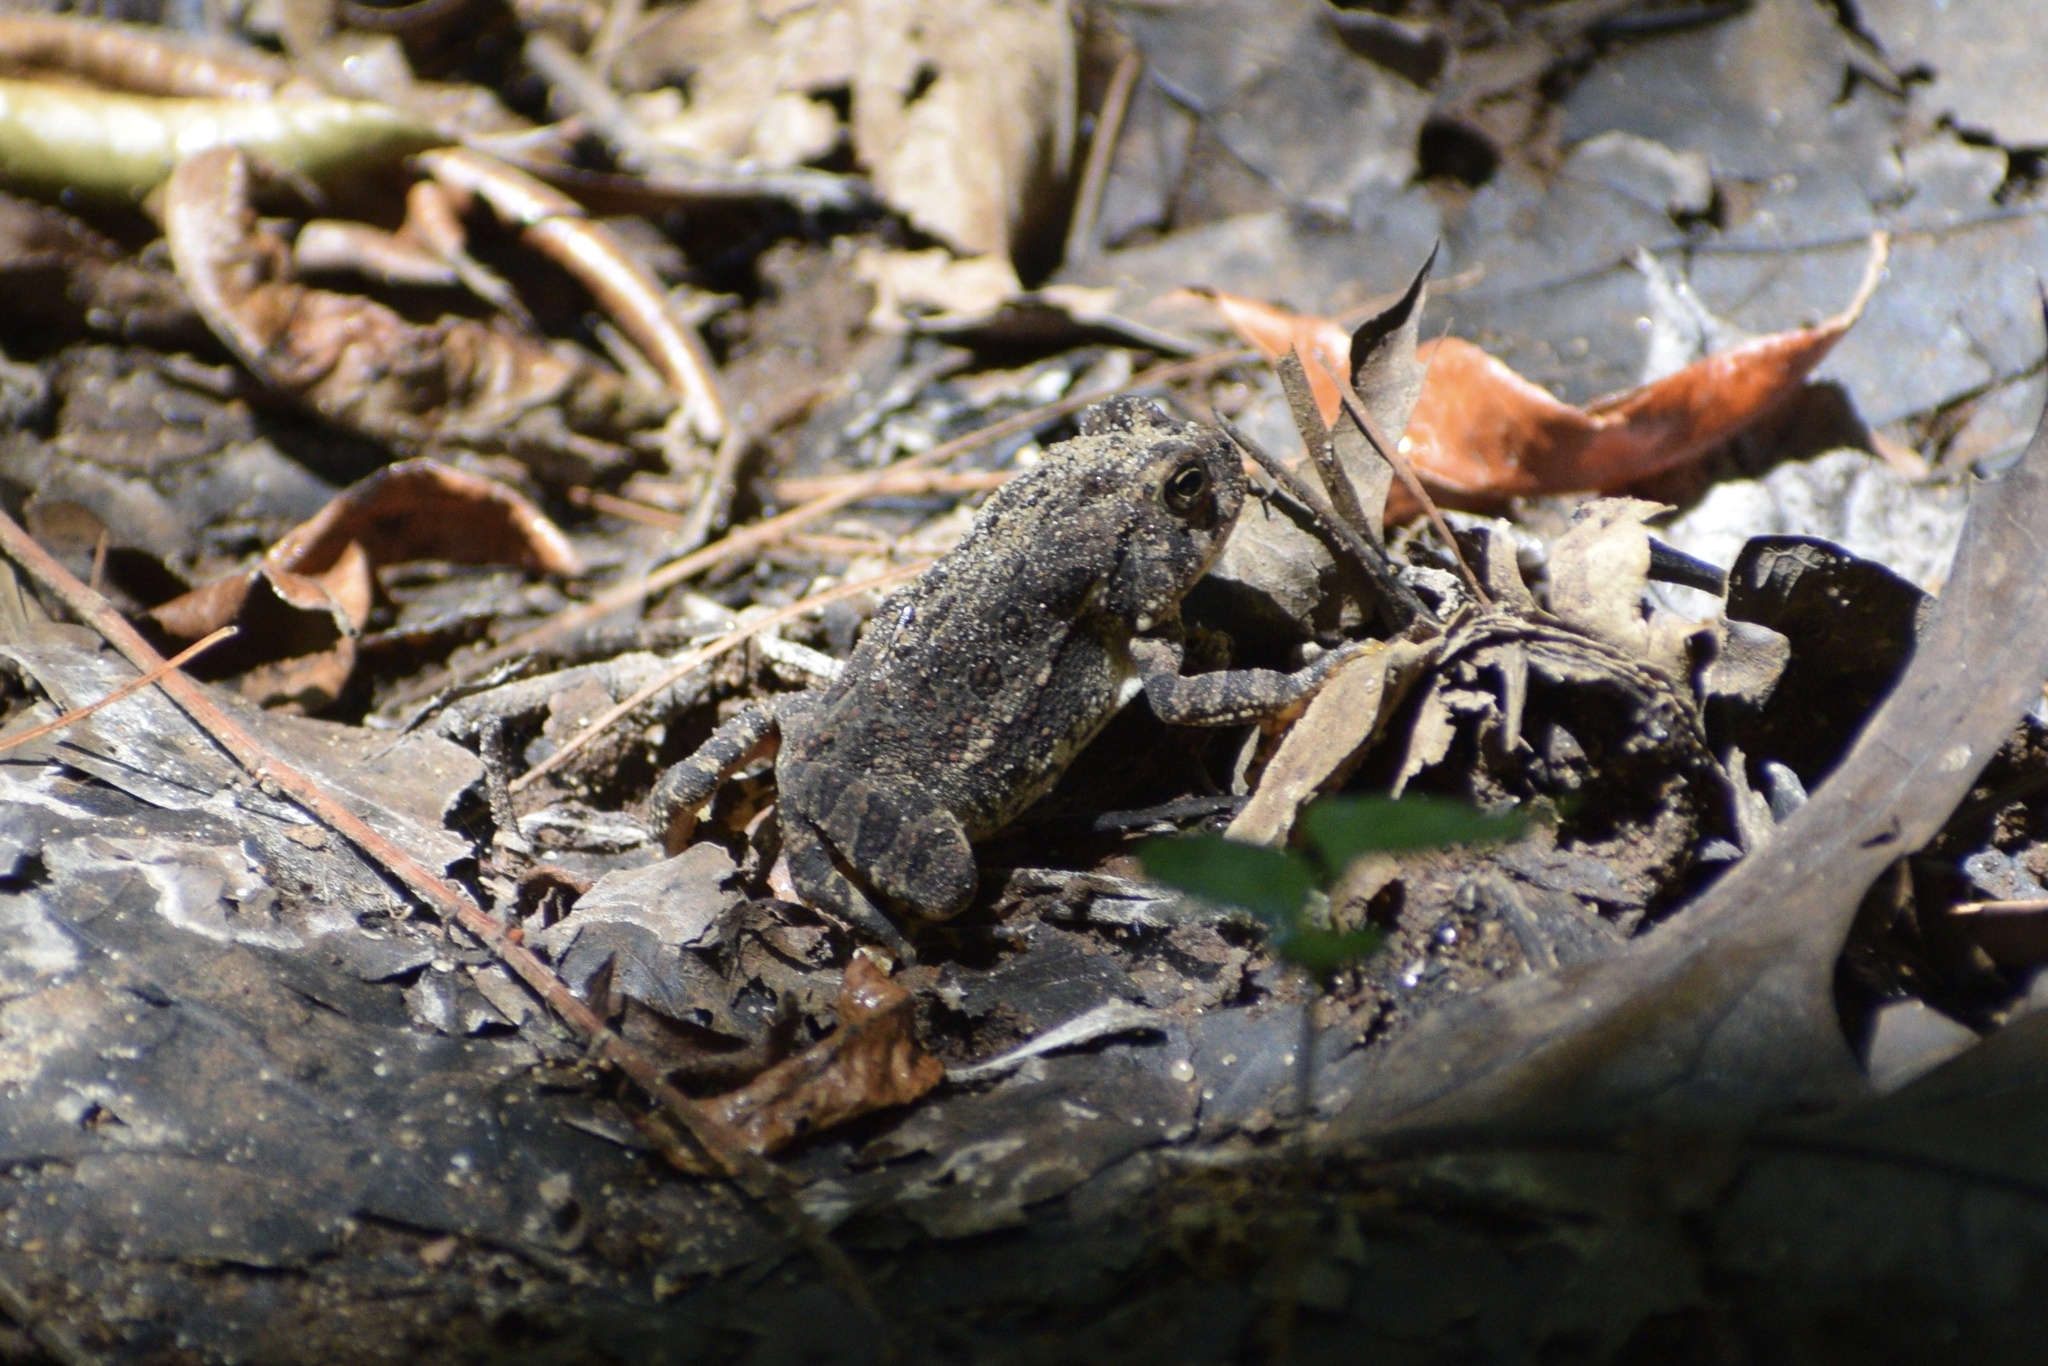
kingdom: Animalia
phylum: Chordata
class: Amphibia
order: Anura
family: Bufonidae
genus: Anaxyrus
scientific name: Anaxyrus fowleri
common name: Fowler's toad
